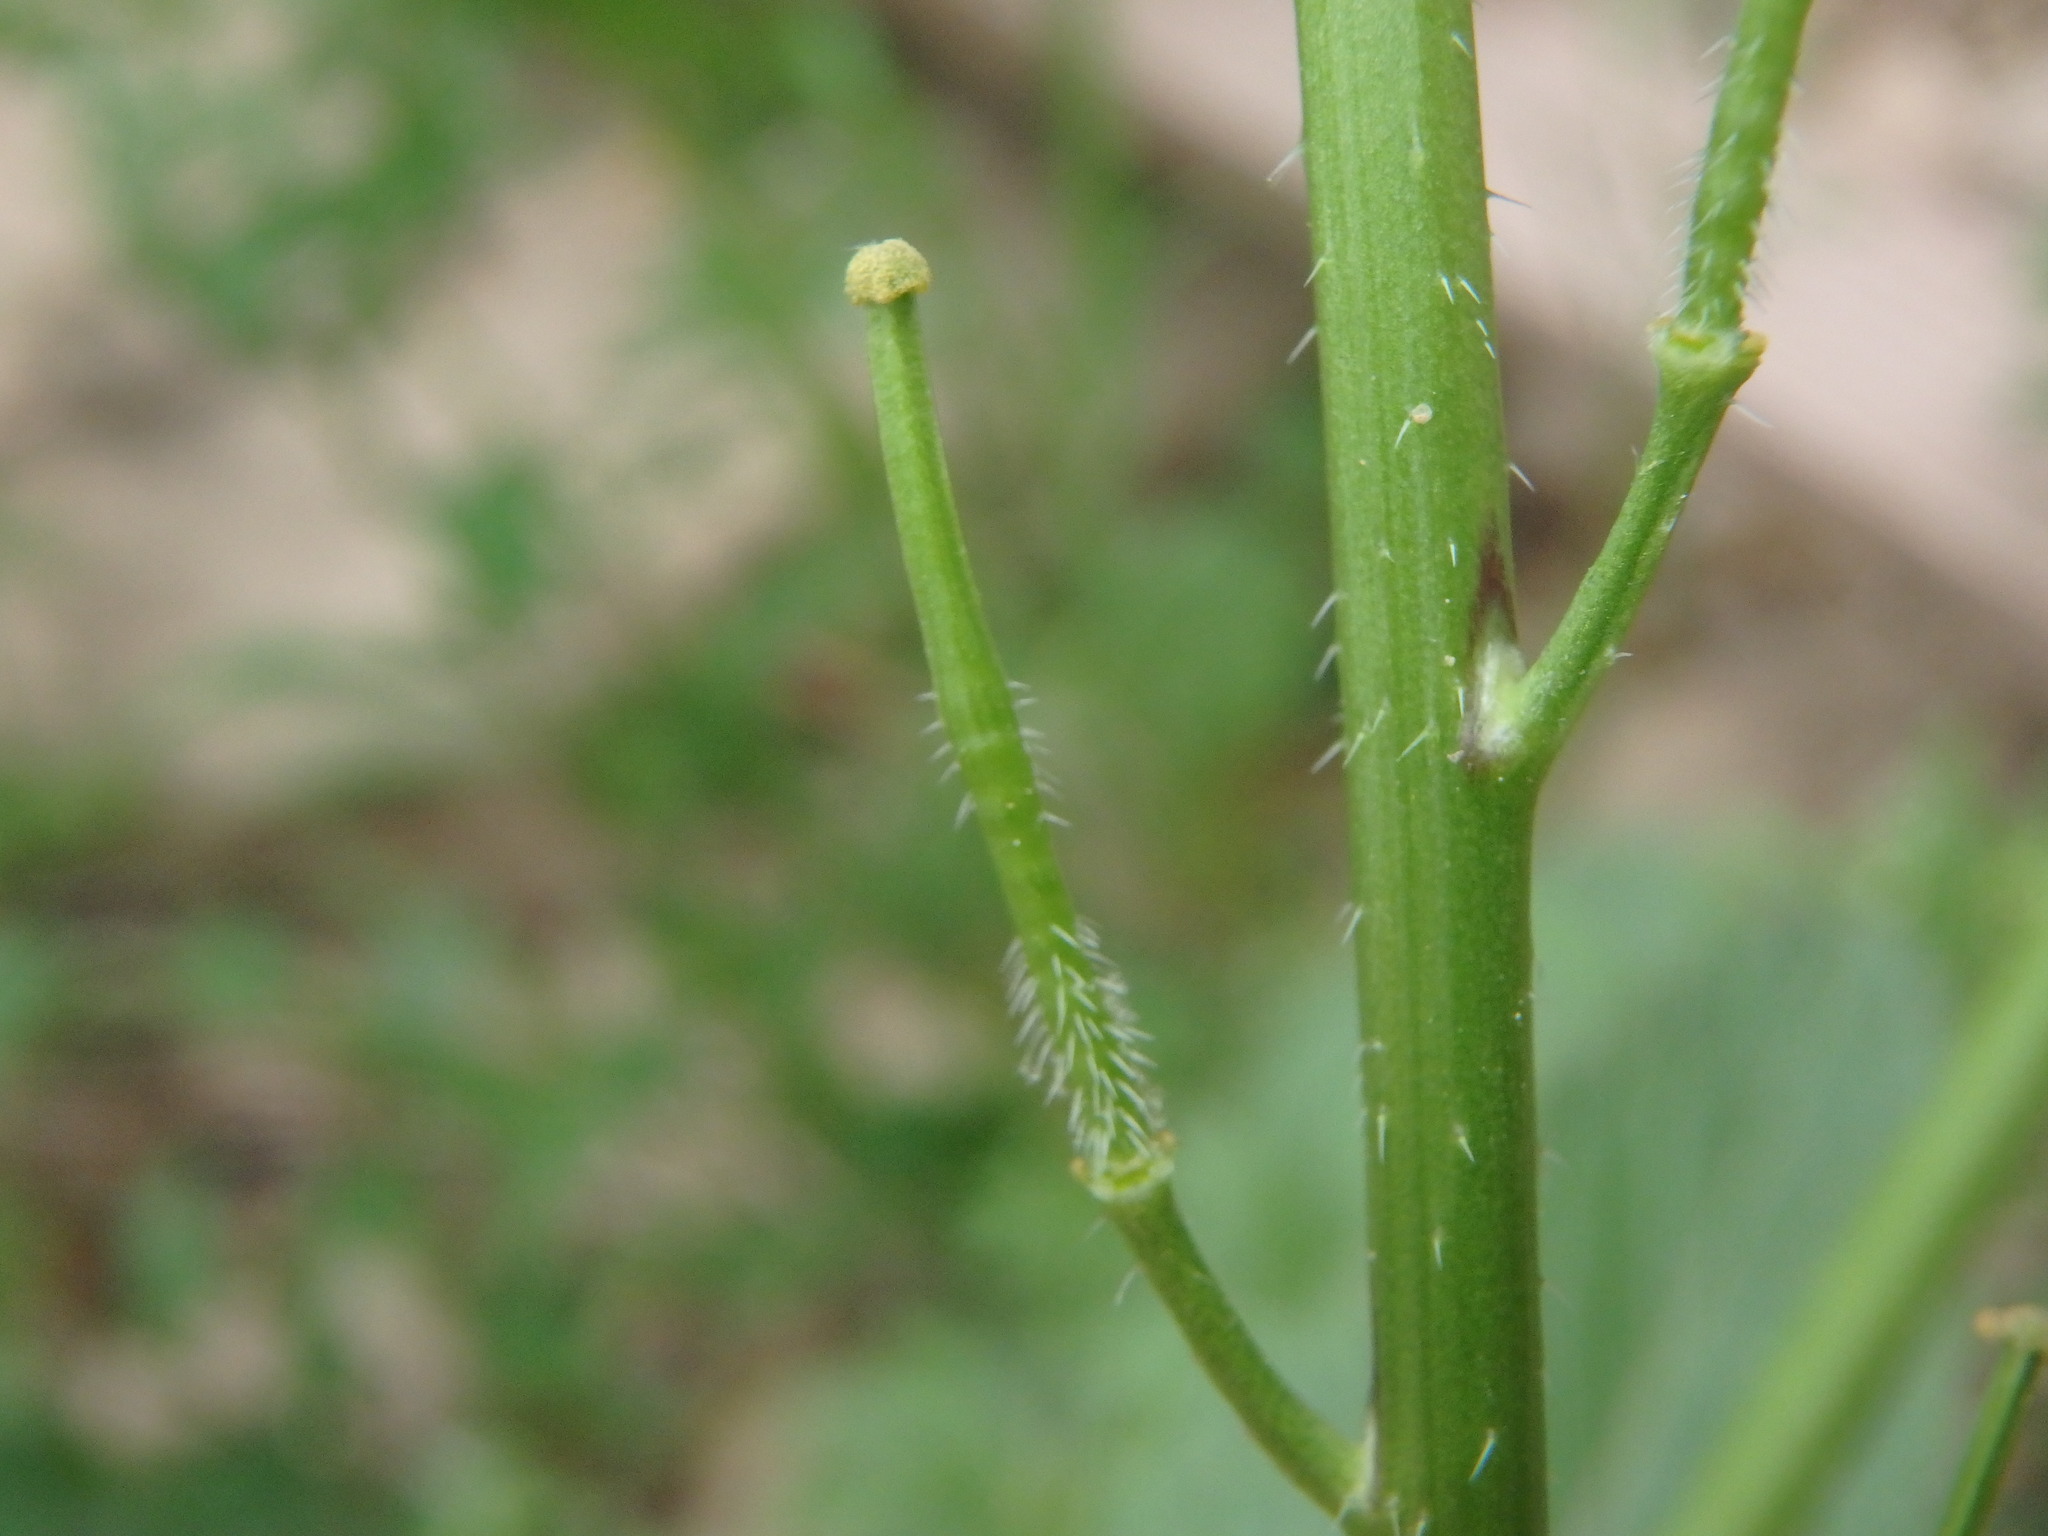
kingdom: Plantae
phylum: Tracheophyta
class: Magnoliopsida
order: Brassicales
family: Brassicaceae
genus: Sinapis
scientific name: Sinapis alba
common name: White mustard
